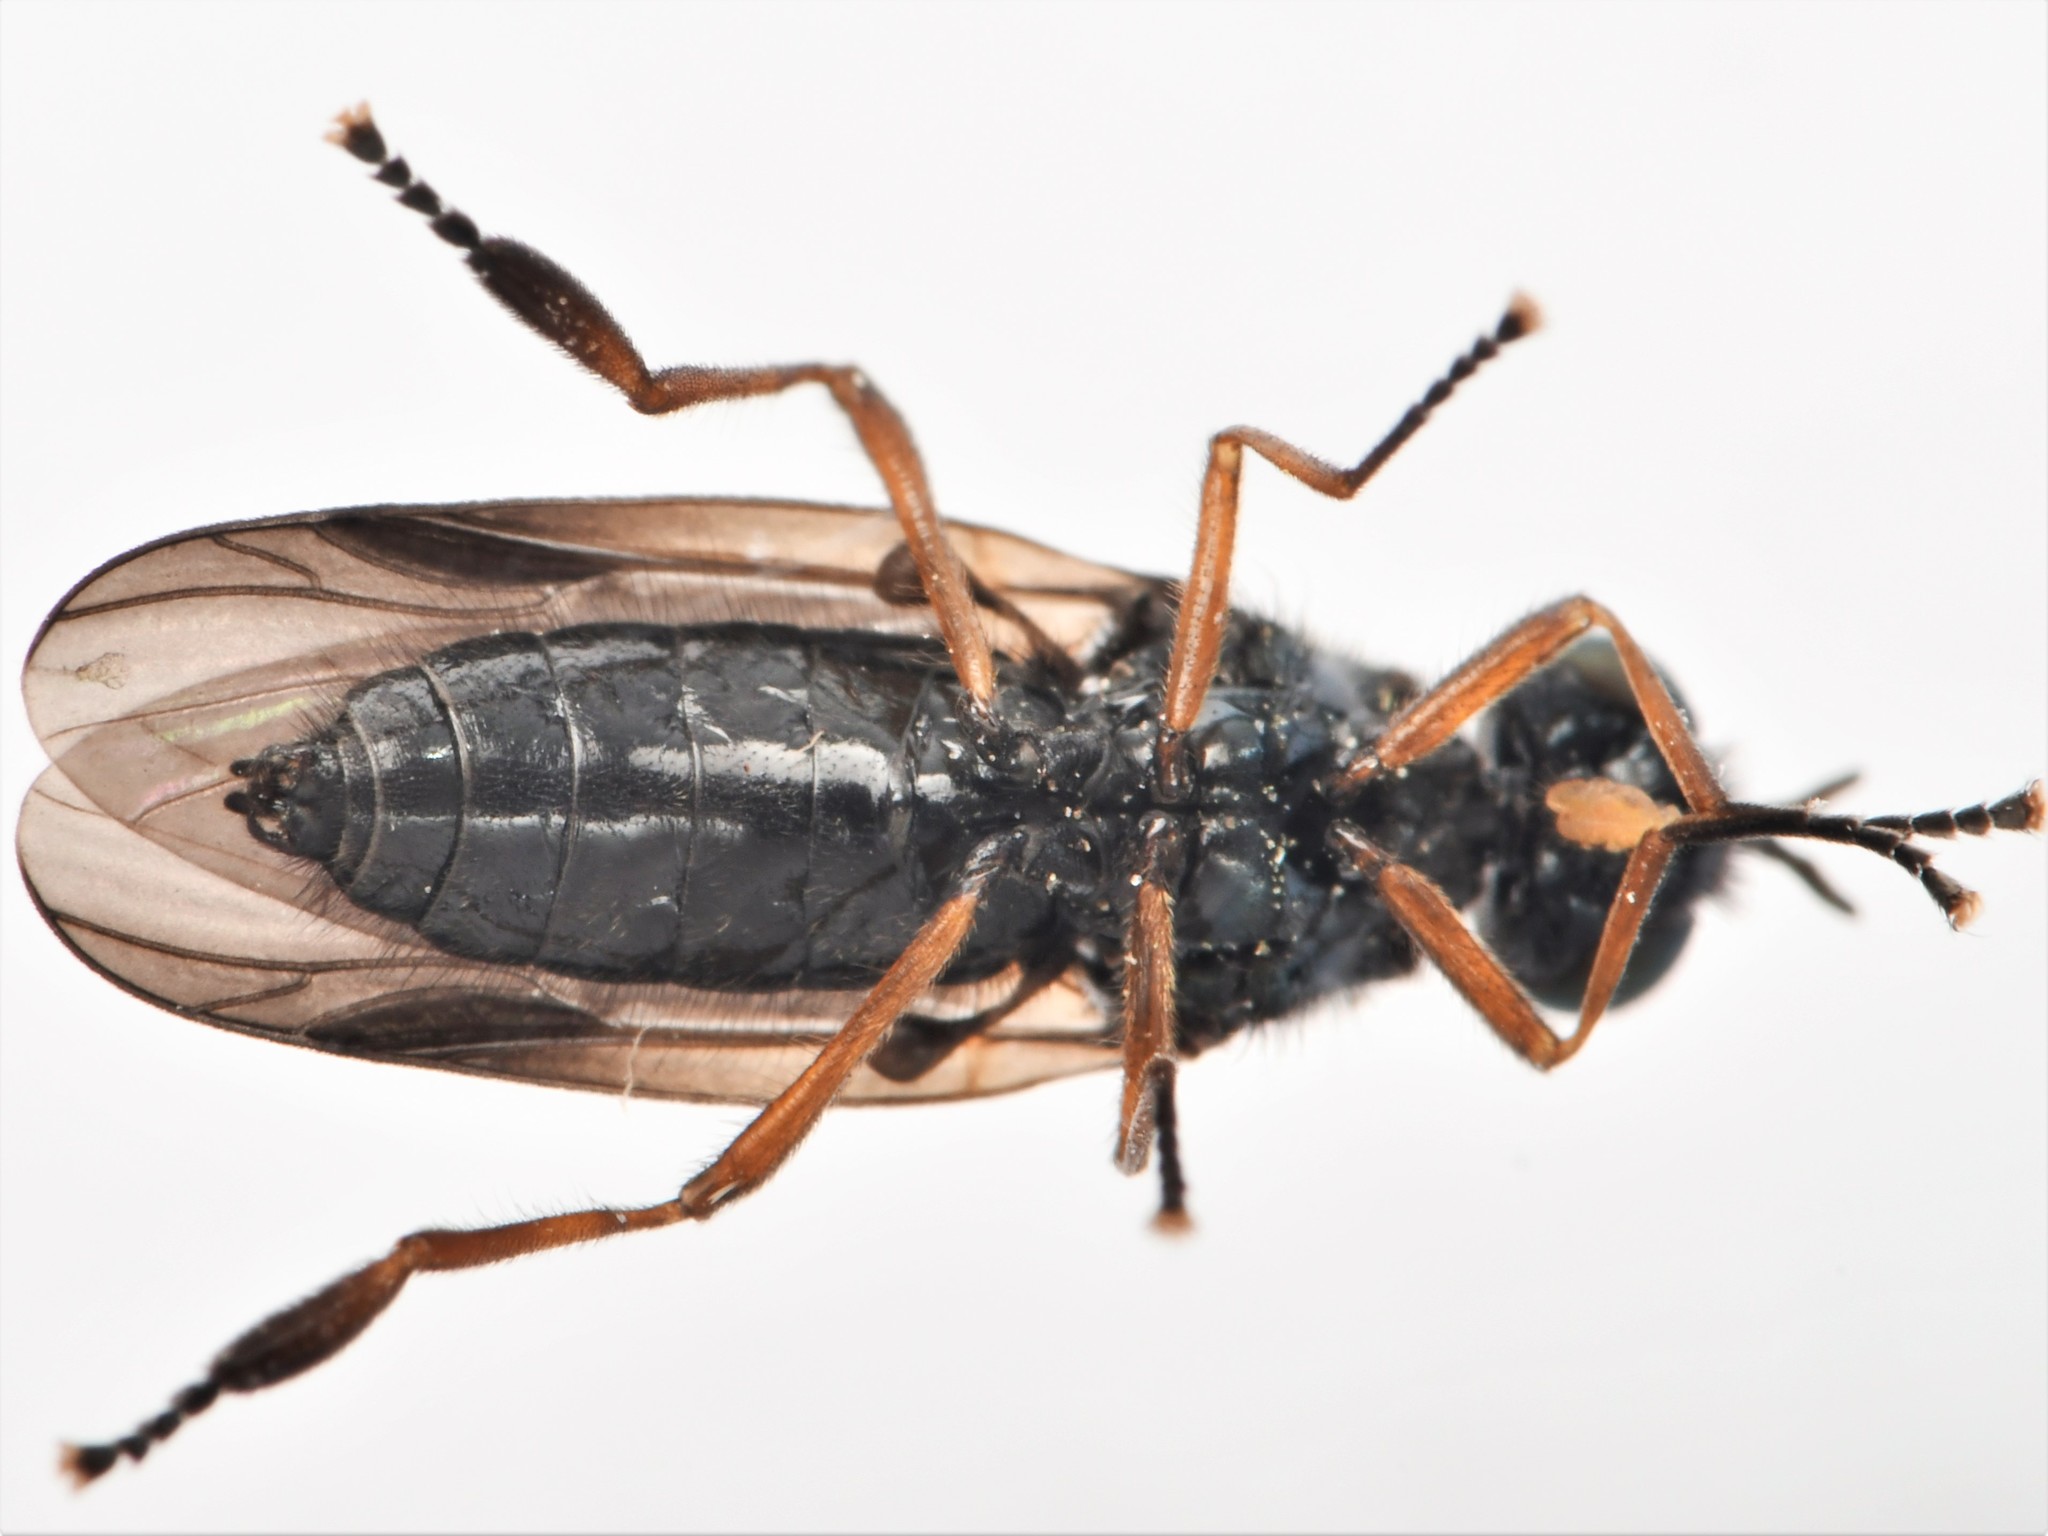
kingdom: Animalia
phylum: Arthropoda
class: Insecta
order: Diptera
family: Stratiomyidae
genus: Beris
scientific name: Beris chalybata
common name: Murky-legged black legionnaire
